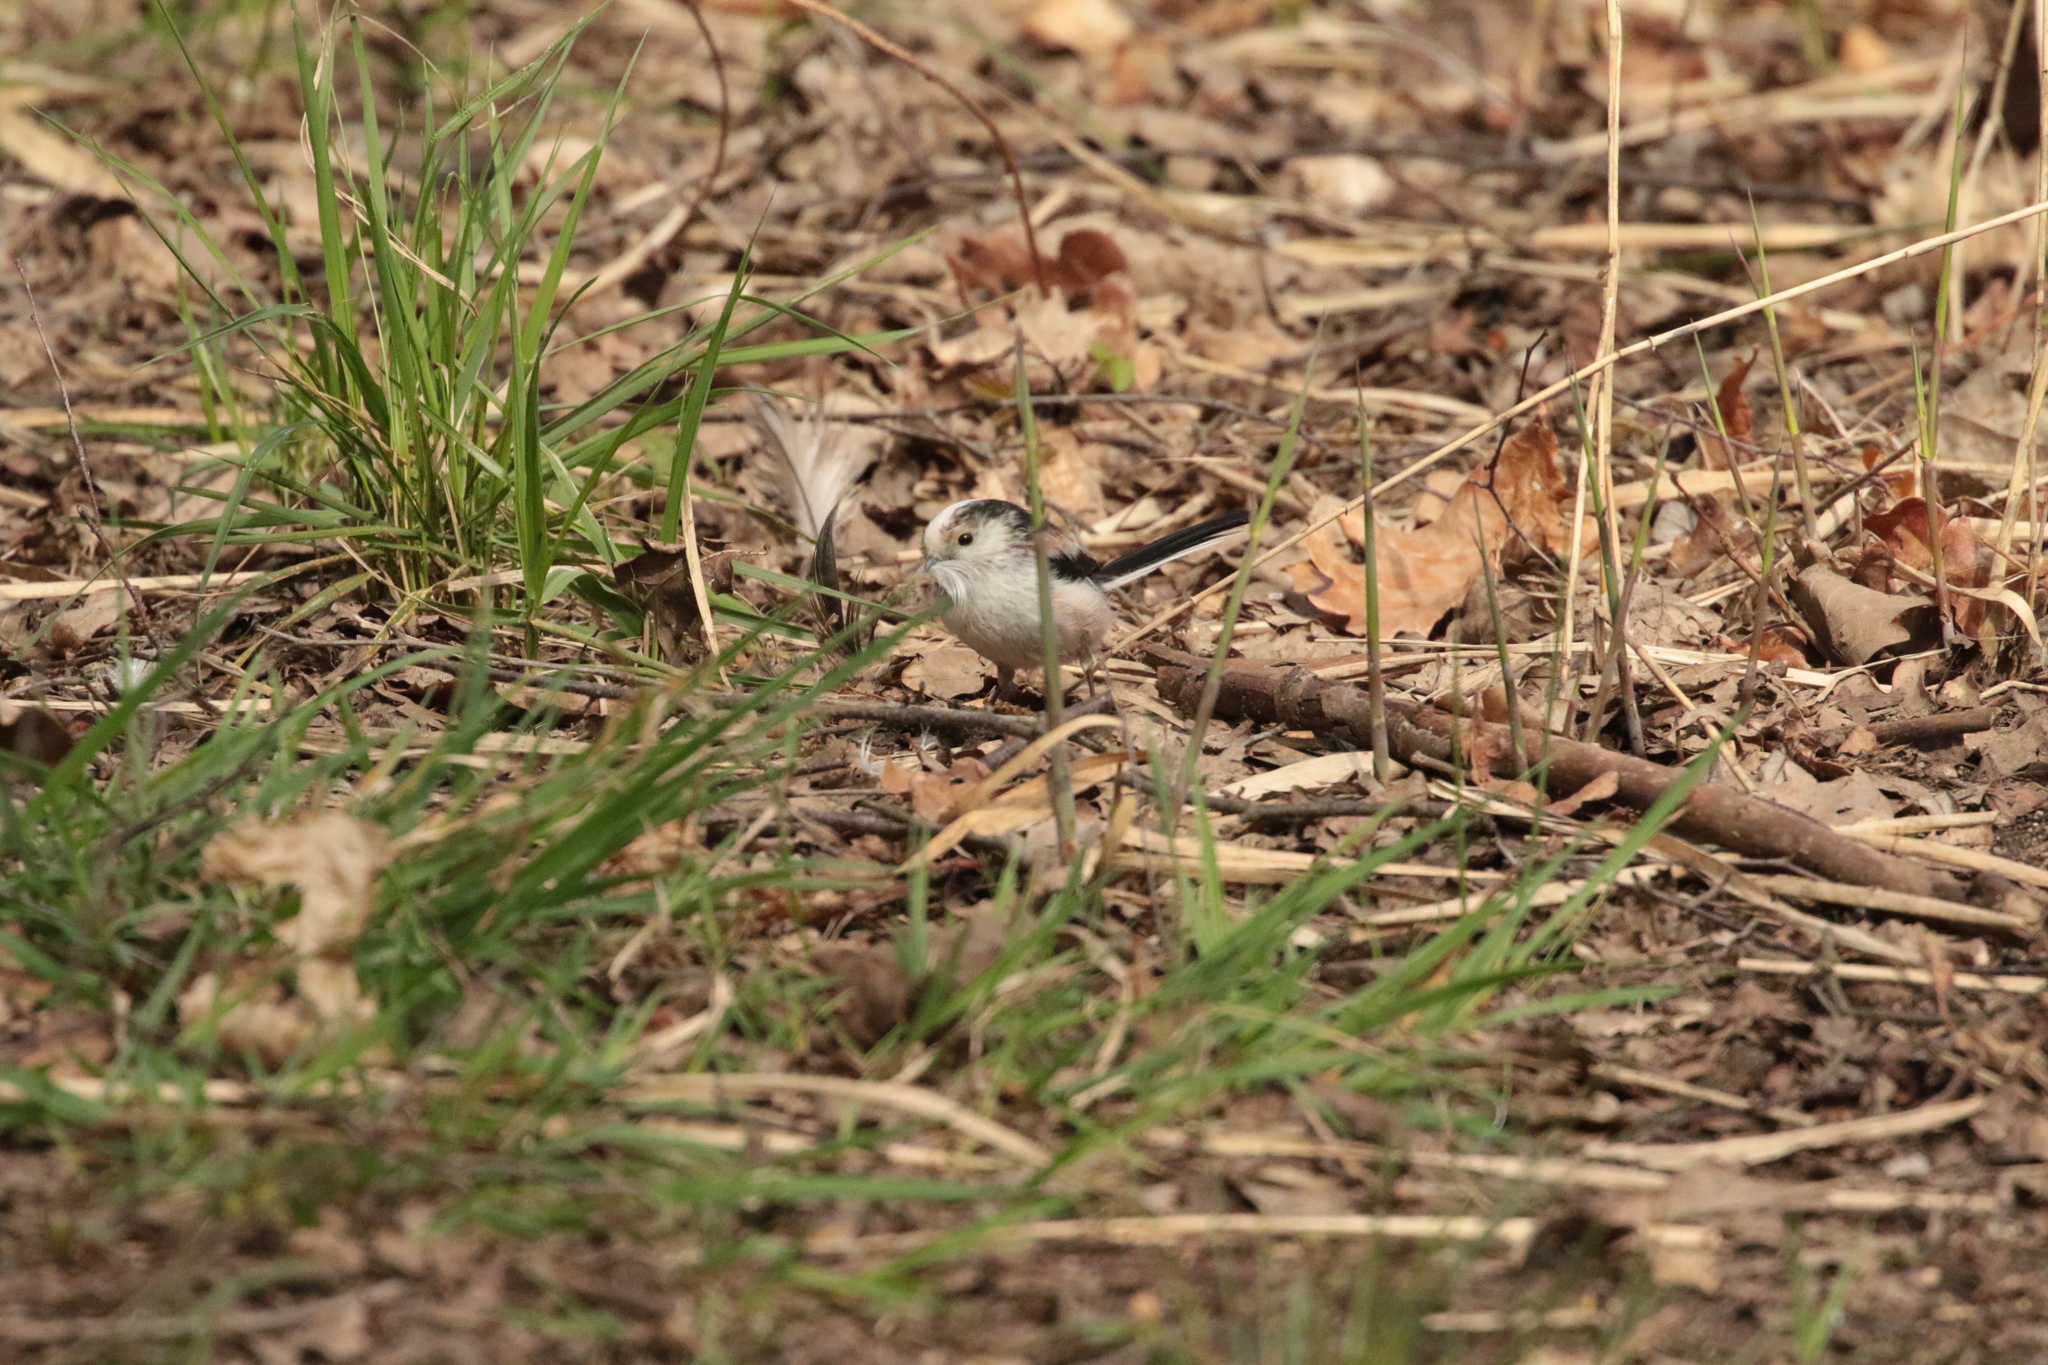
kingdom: Animalia
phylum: Chordata
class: Aves
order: Passeriformes
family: Aegithalidae
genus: Aegithalos
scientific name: Aegithalos caudatus
